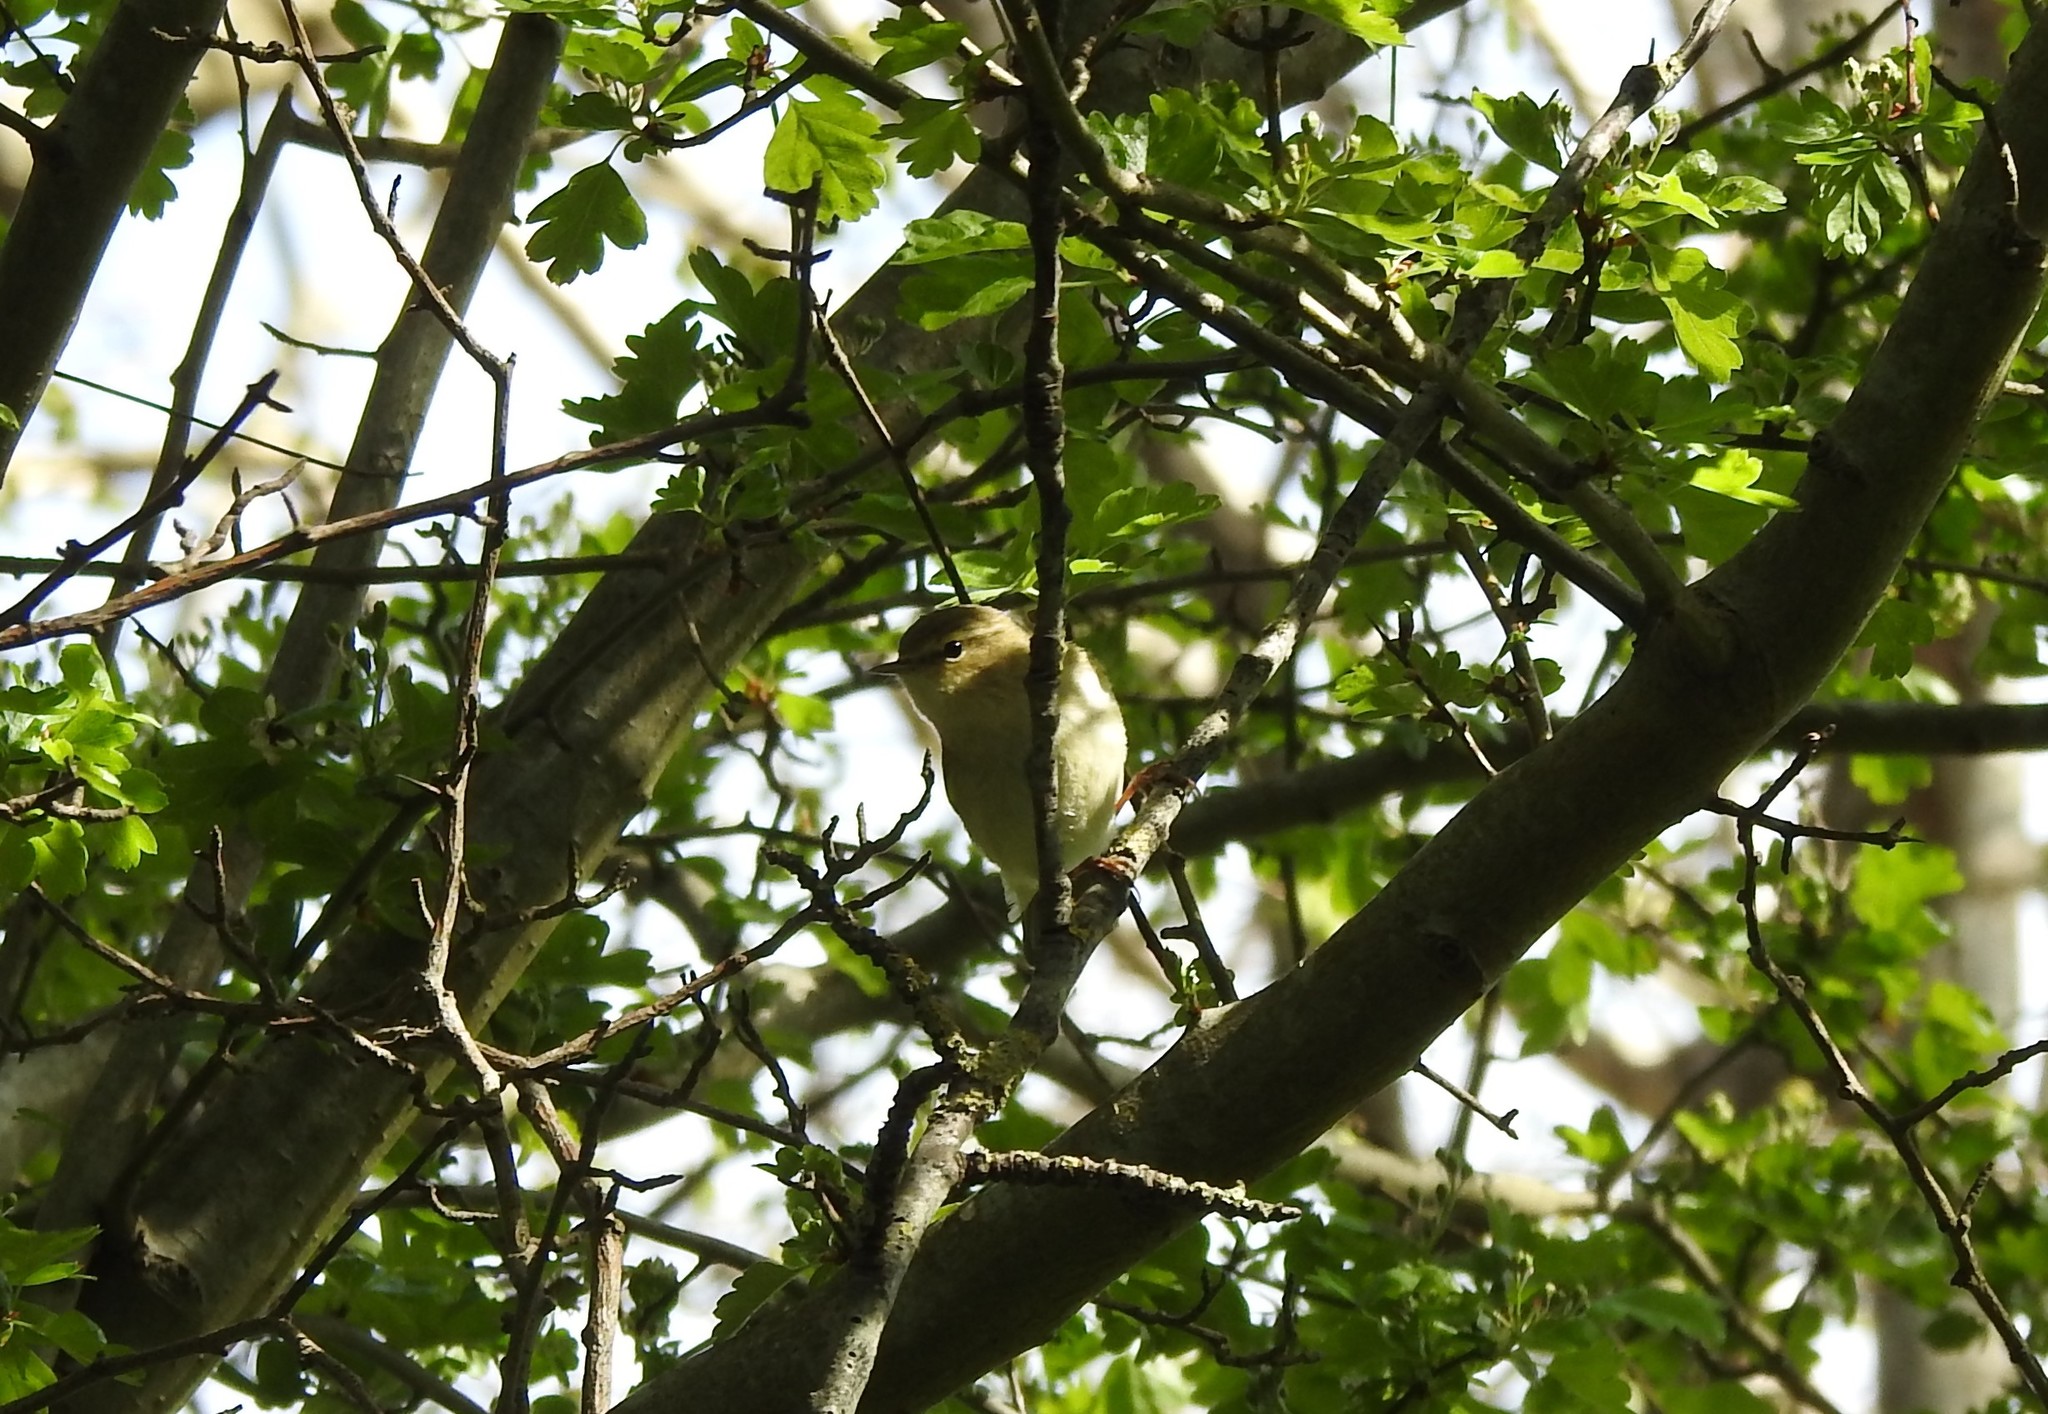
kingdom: Animalia
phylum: Chordata
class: Aves
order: Passeriformes
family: Phylloscopidae
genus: Phylloscopus
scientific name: Phylloscopus trochilus
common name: Willow warbler
